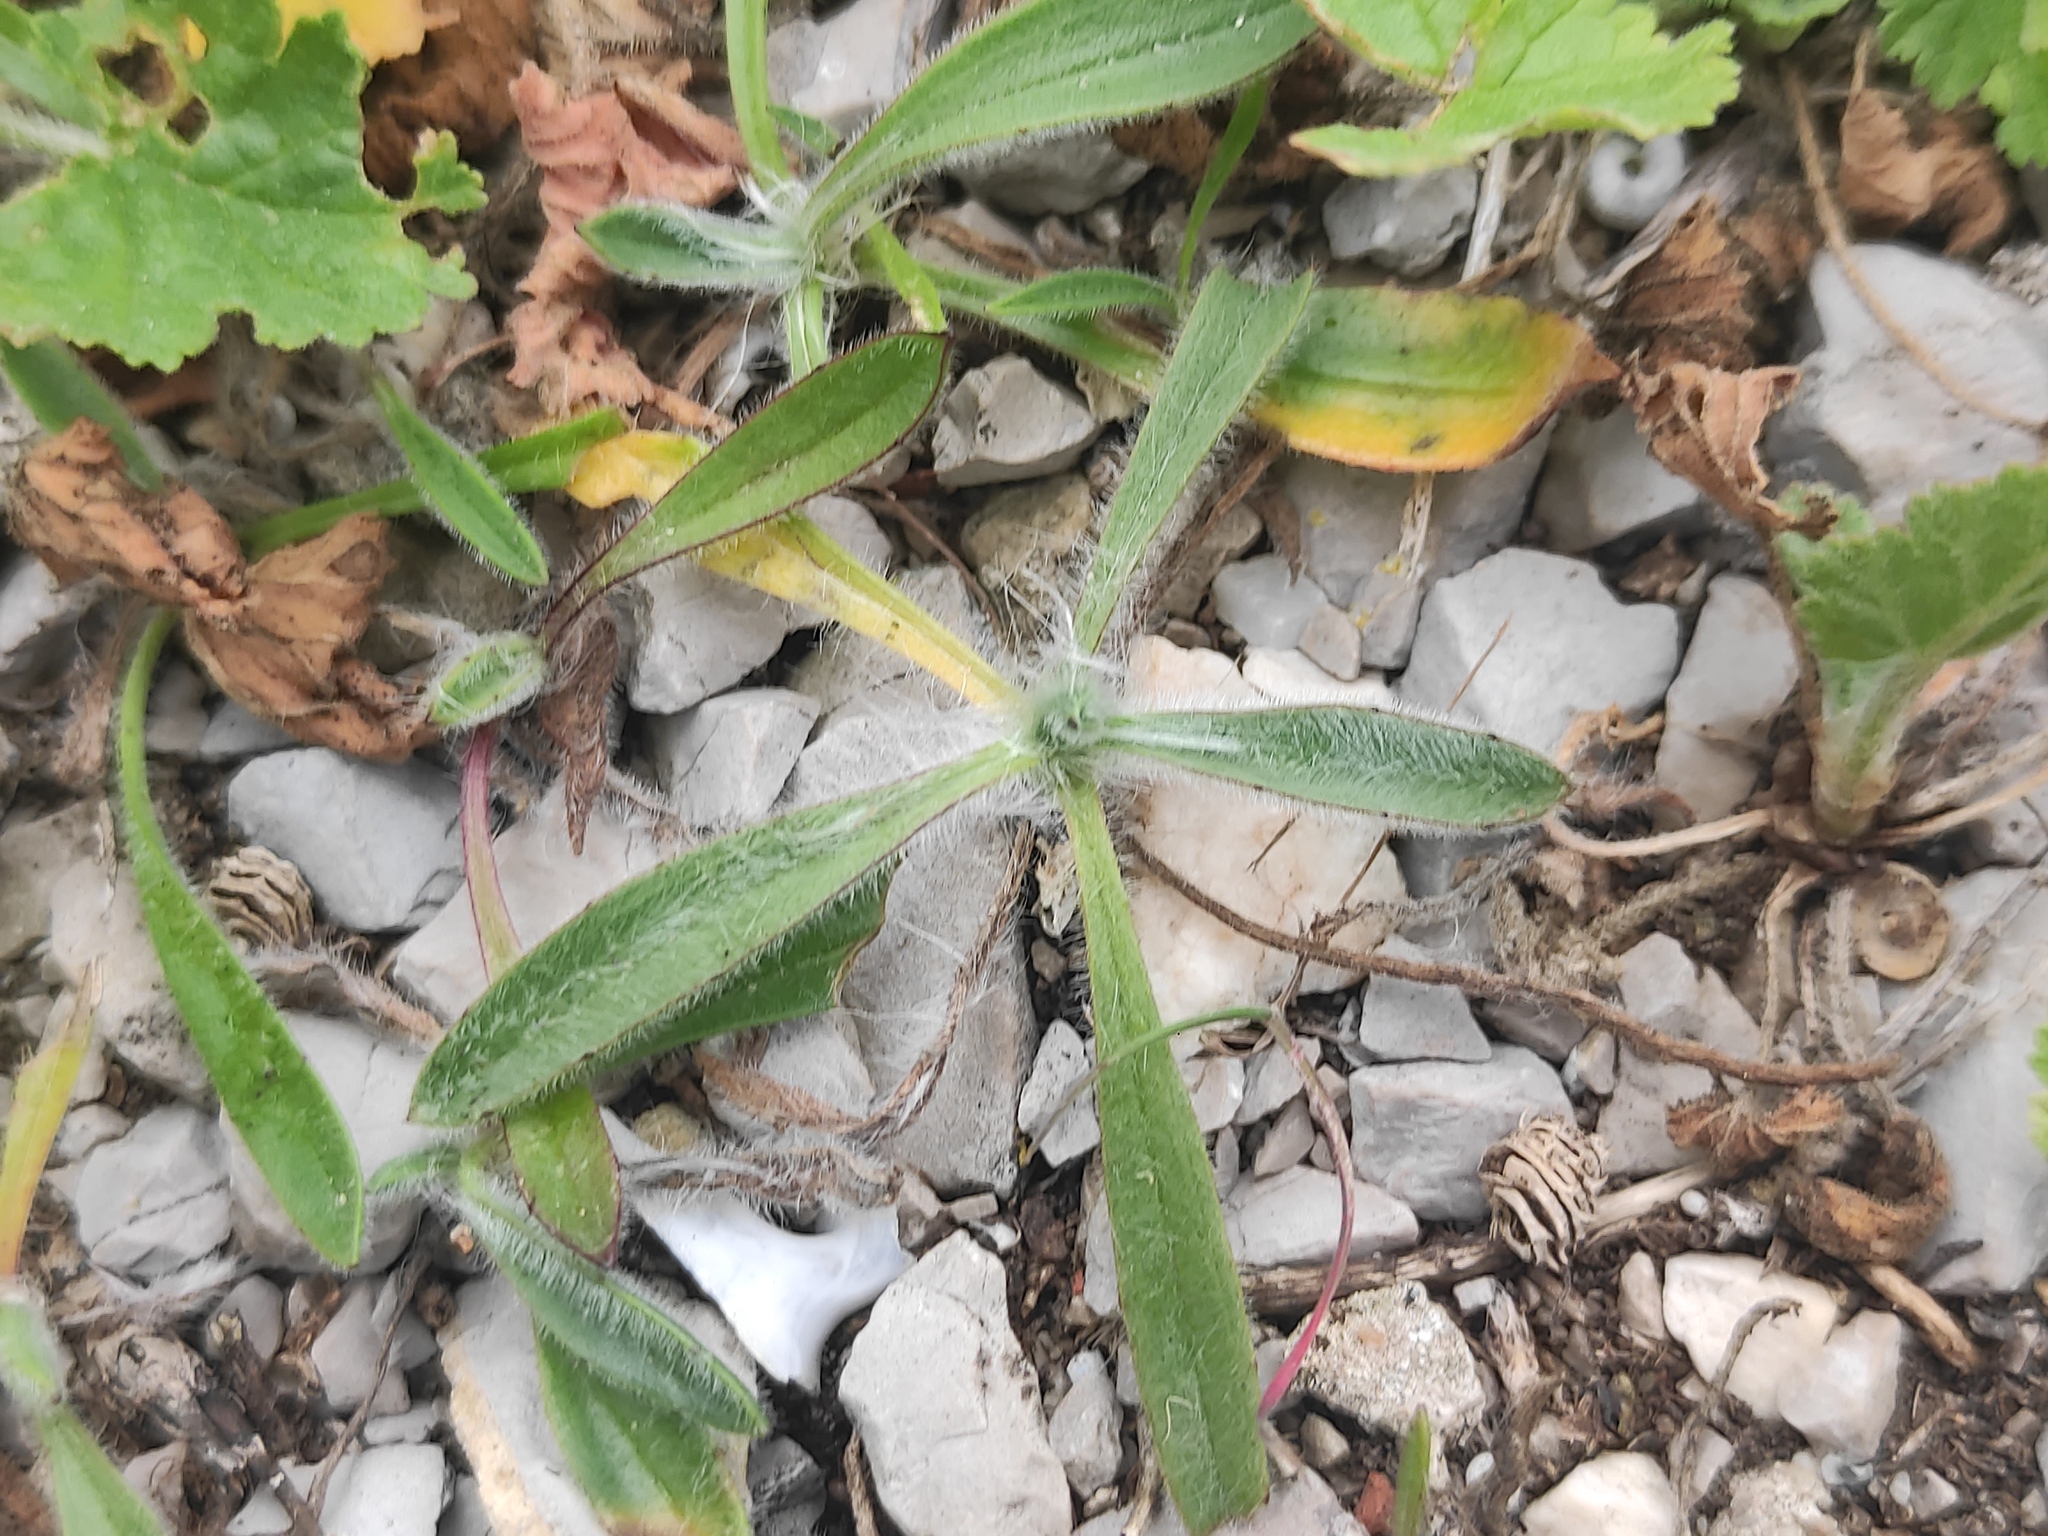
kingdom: Plantae
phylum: Tracheophyta
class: Magnoliopsida
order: Lamiales
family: Plantaginaceae
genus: Plantago
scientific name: Plantago lagopus
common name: Hare-foot plantain
